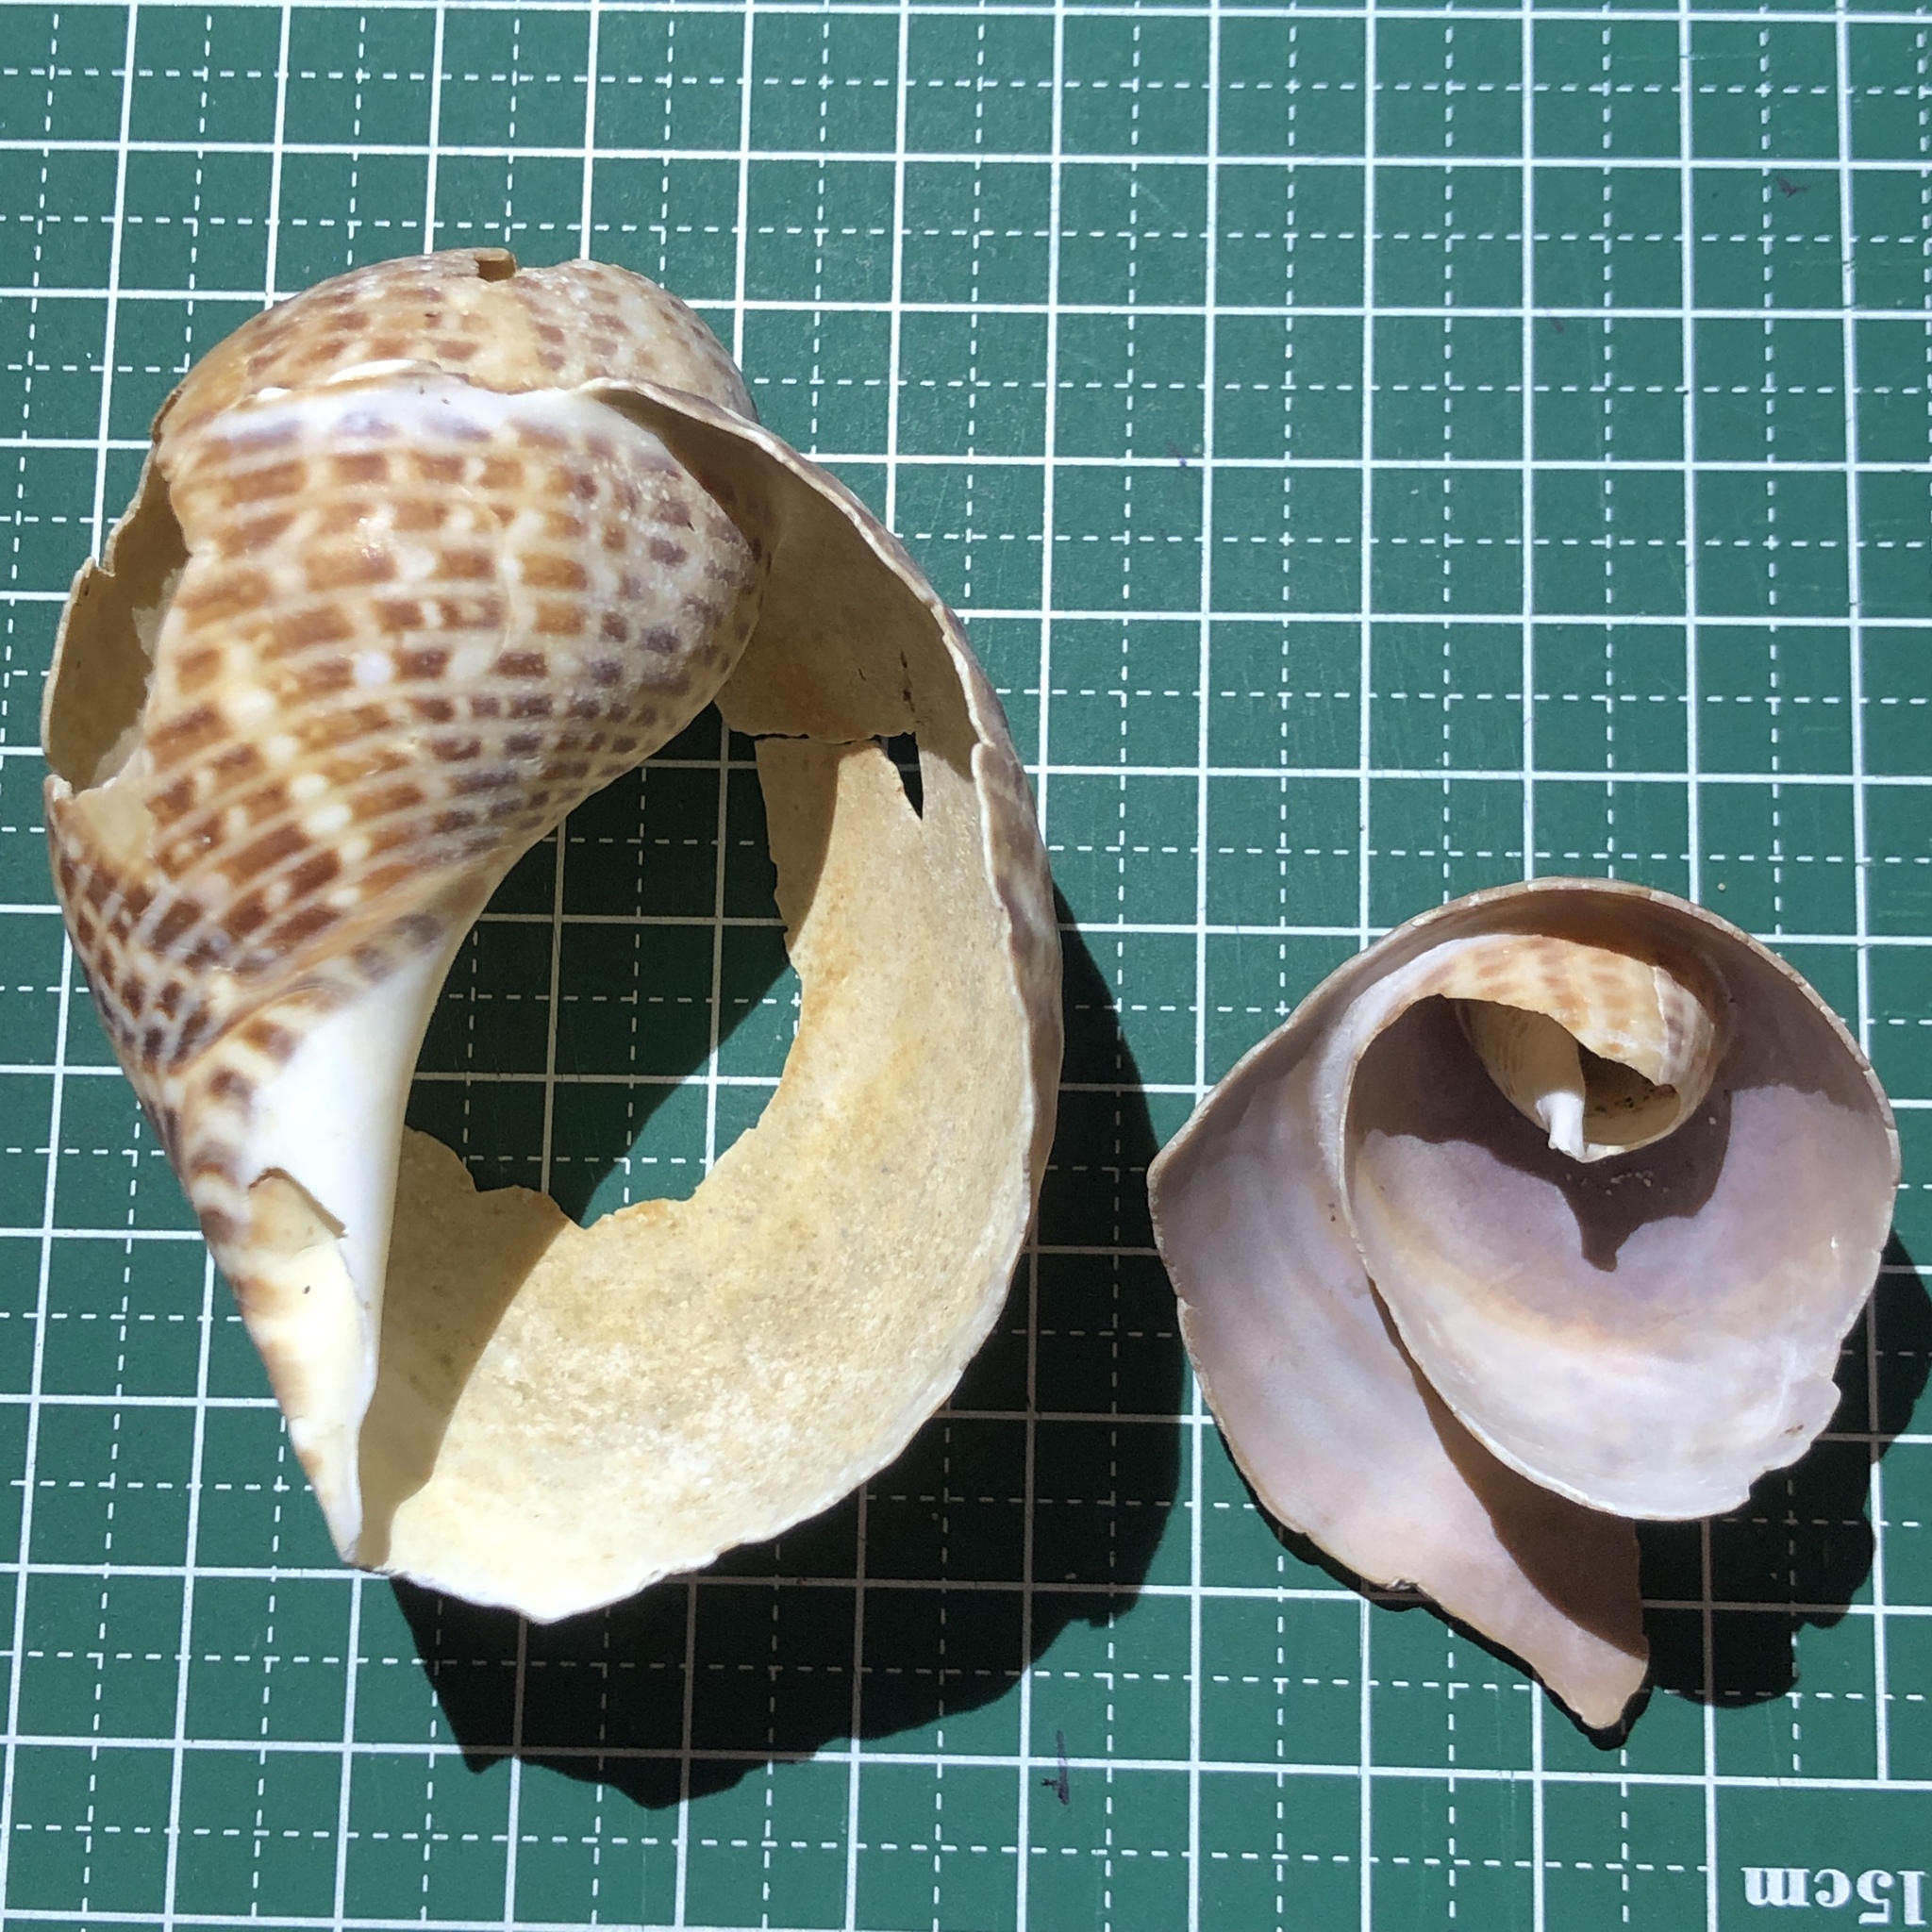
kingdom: Animalia
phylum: Mollusca
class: Gastropoda
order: Littorinimorpha
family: Tonnidae
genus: Tonna
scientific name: Tonna perdix
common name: Pacific partridge tun
